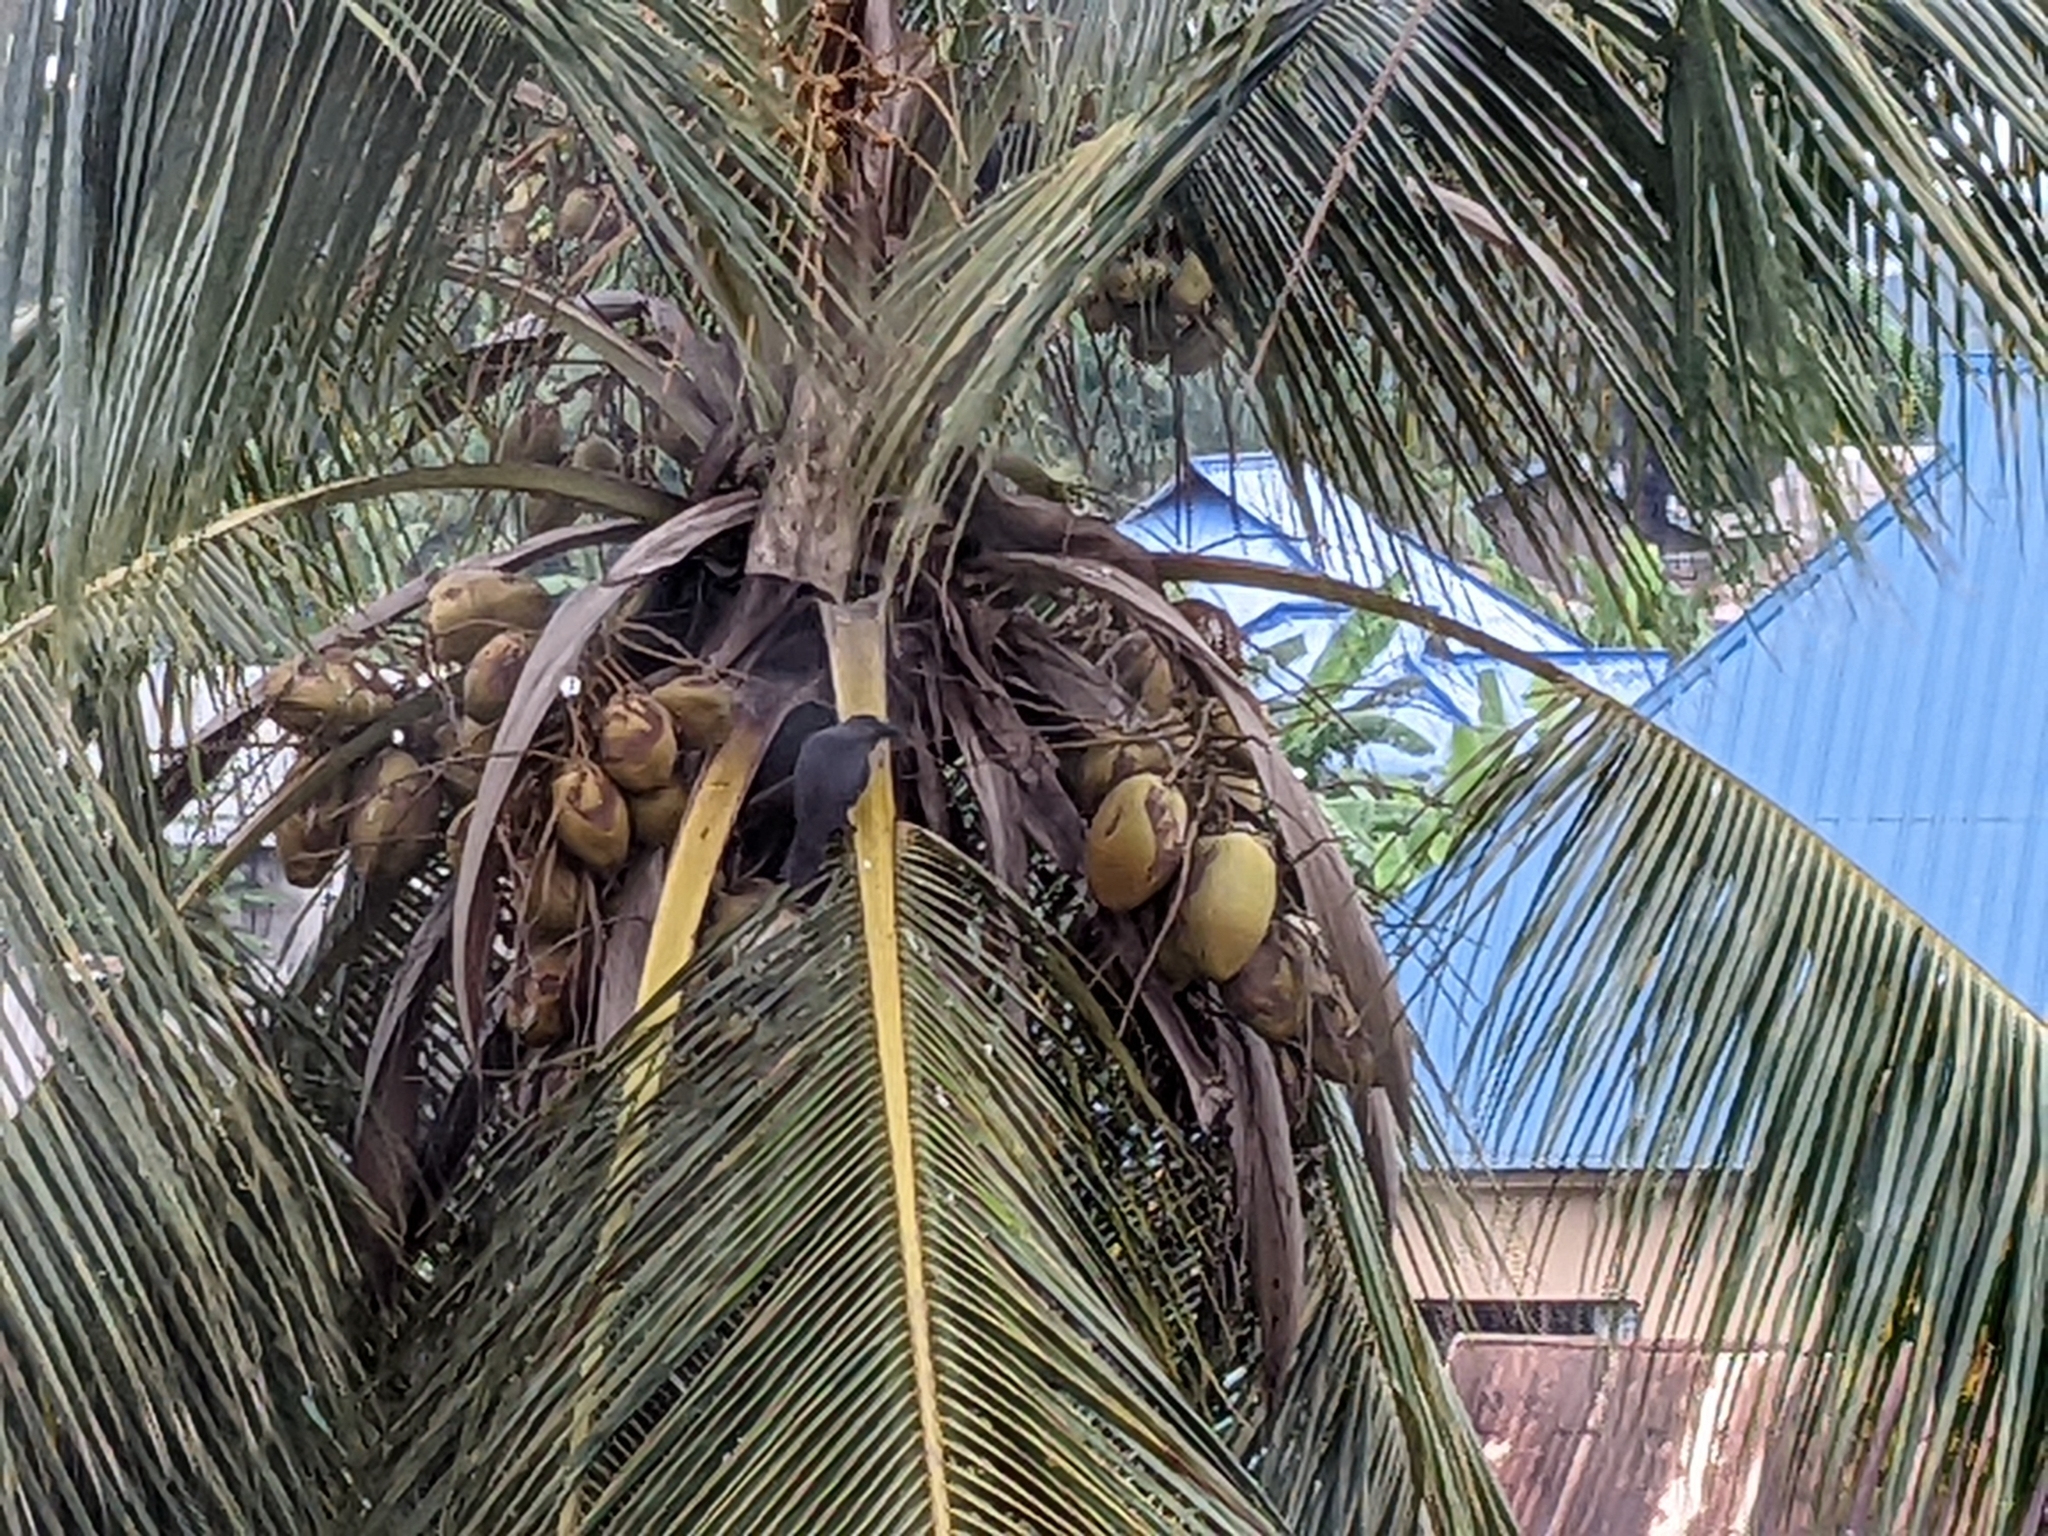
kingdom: Animalia
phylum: Chordata
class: Aves
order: Passeriformes
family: Corvidae
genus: Corvus
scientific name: Corvus splendens
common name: House crow
